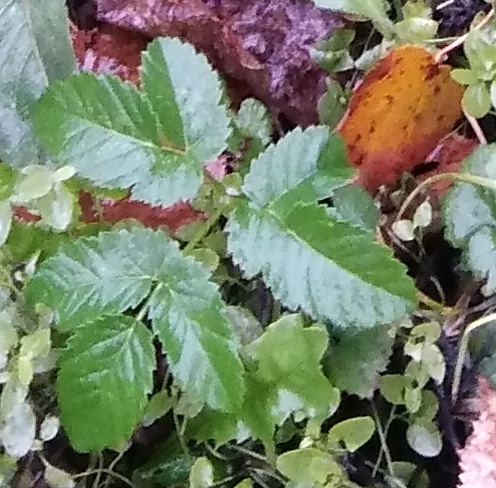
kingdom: Plantae
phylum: Tracheophyta
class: Magnoliopsida
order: Apiales
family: Apiaceae
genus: Chaerophyllum
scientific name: Chaerophyllum aromaticum
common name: Broadleaf chervil
